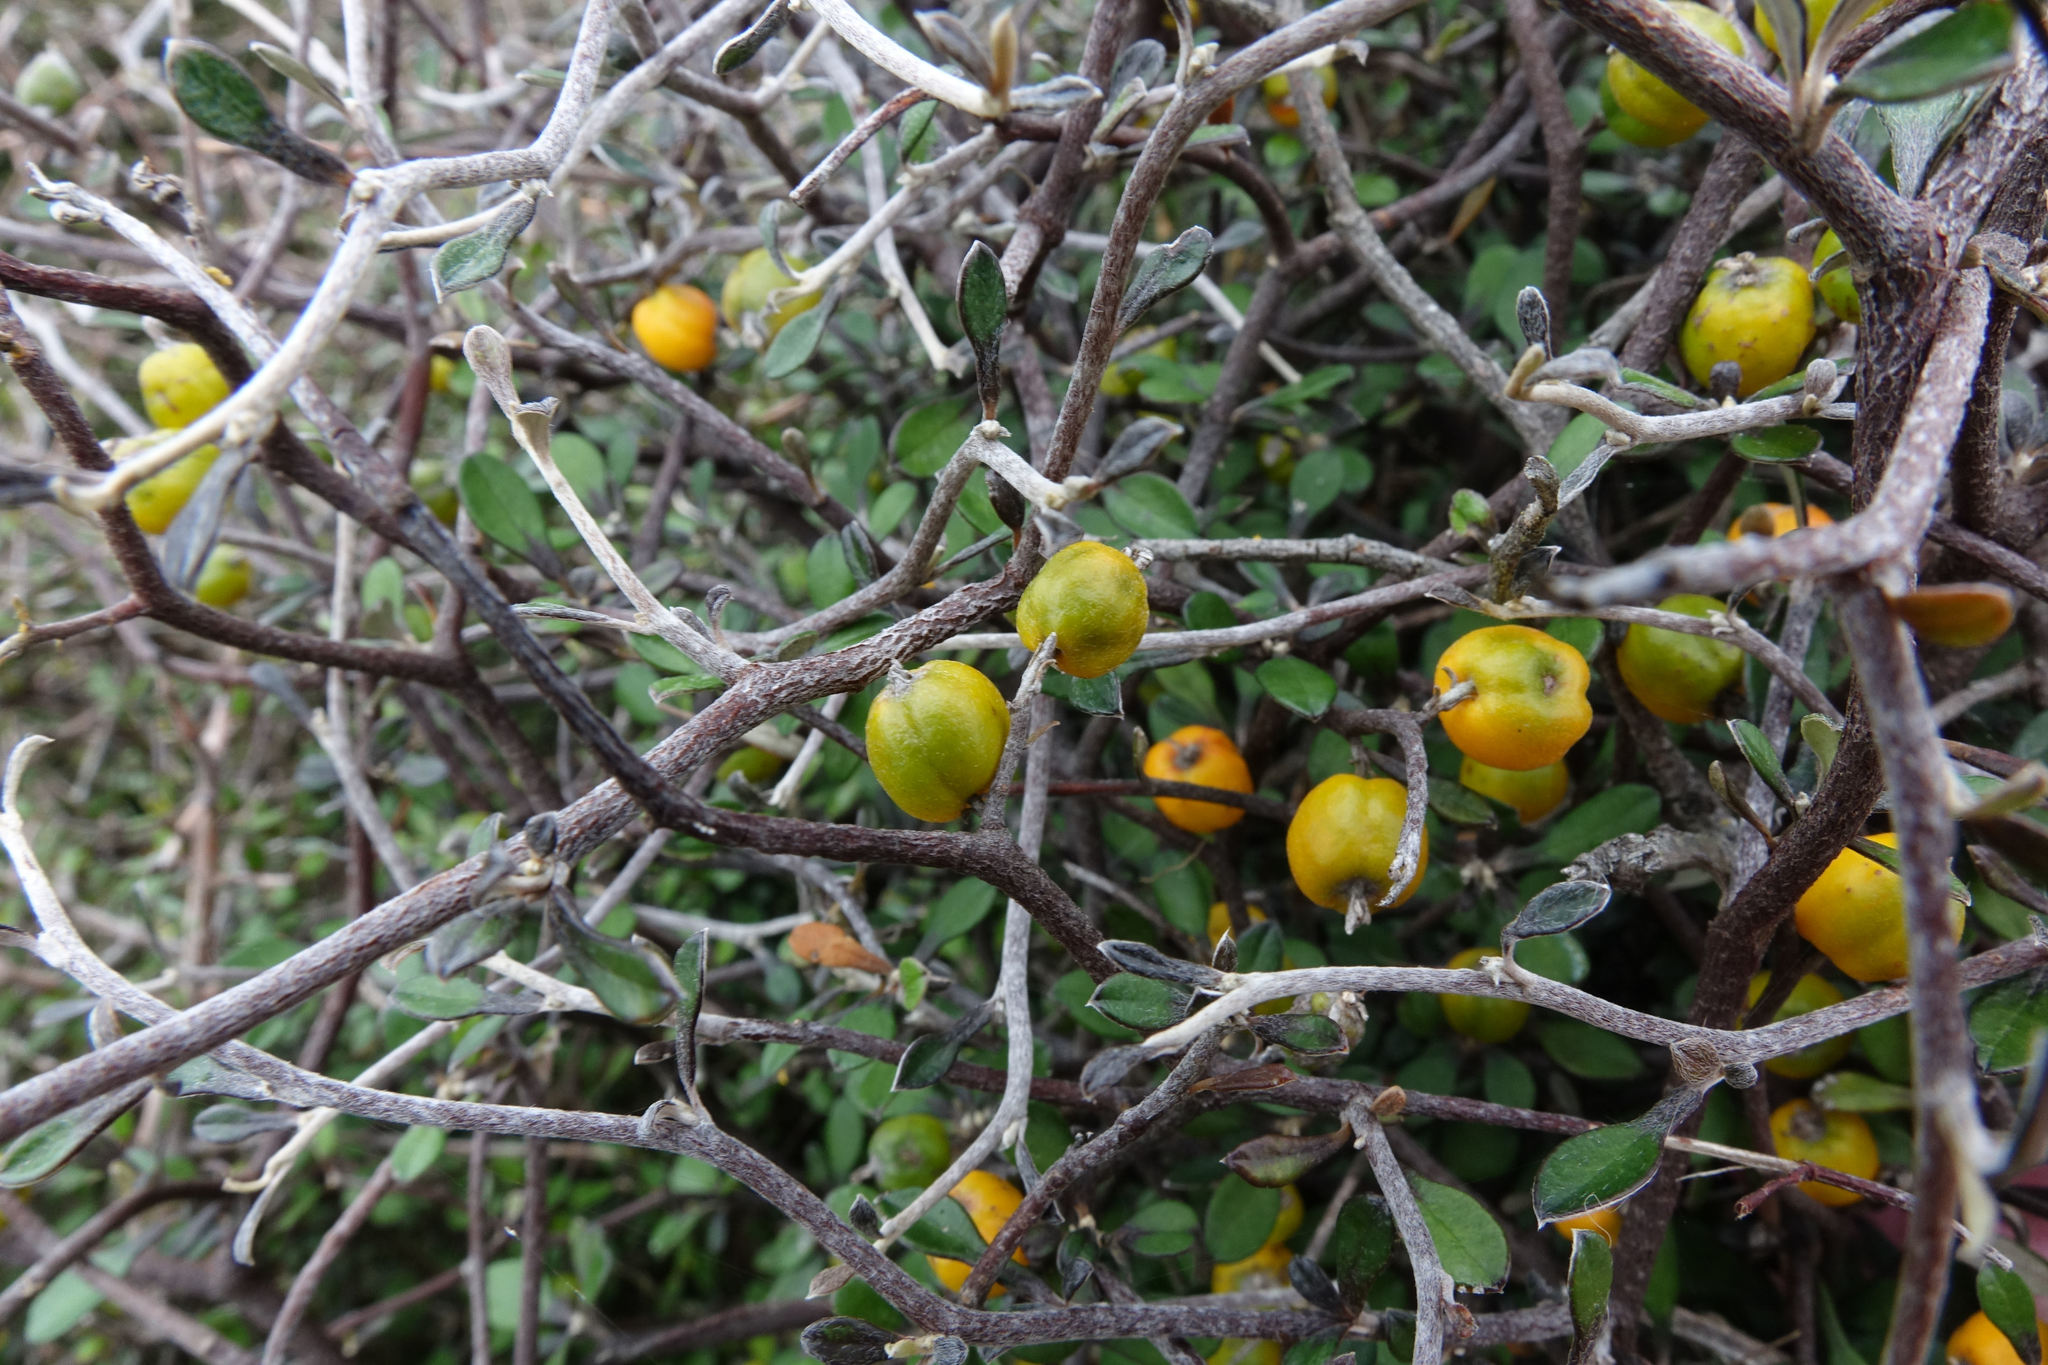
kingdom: Plantae
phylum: Tracheophyta
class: Magnoliopsida
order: Asterales
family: Argophyllaceae
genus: Corokia
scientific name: Corokia cotoneaster
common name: Wire nettingbush
